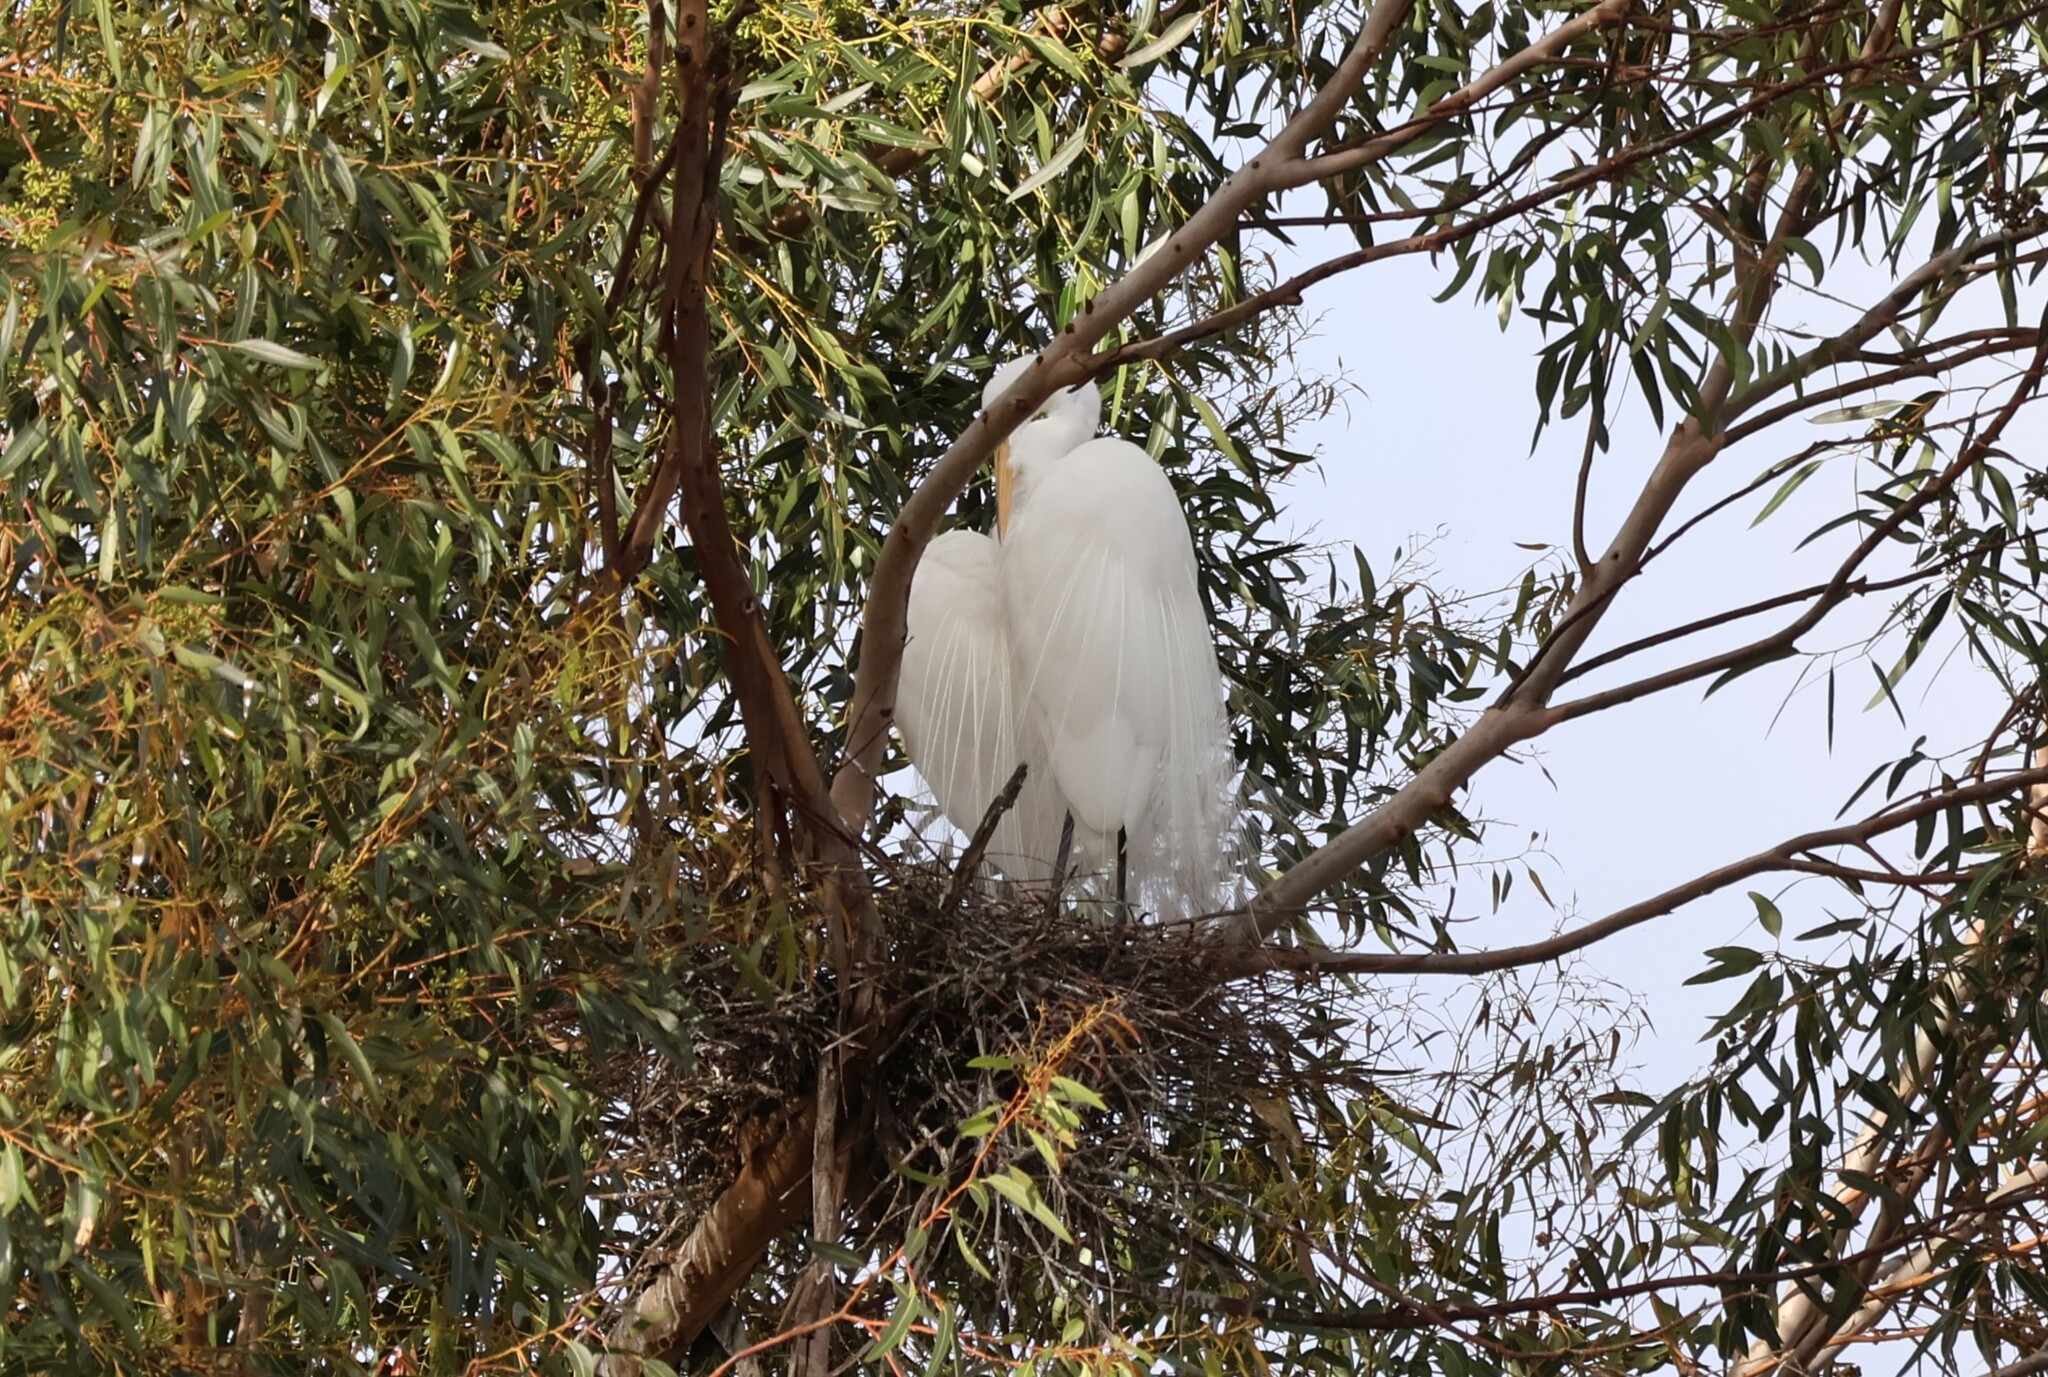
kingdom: Animalia
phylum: Chordata
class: Aves
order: Pelecaniformes
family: Ardeidae
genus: Ardea
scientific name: Ardea alba
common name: Great egret
